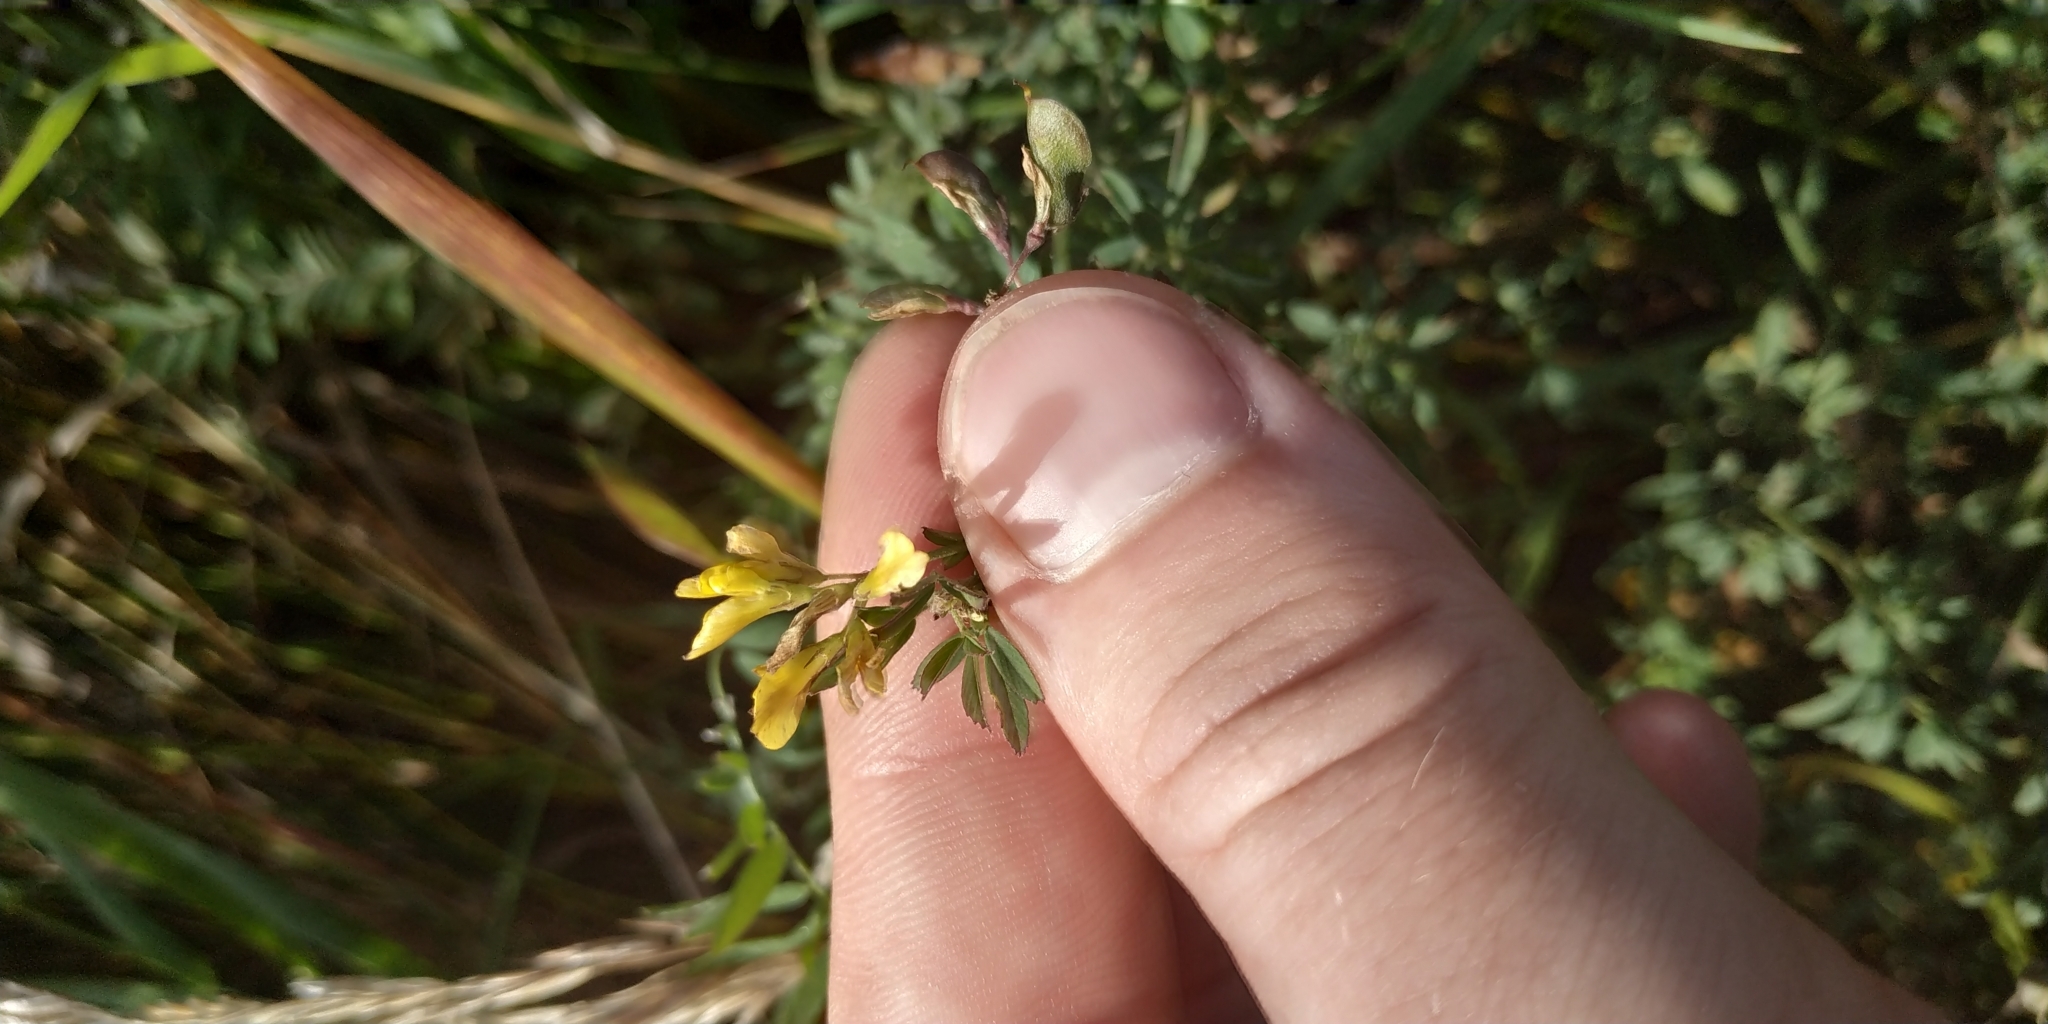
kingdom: Plantae
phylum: Tracheophyta
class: Magnoliopsida
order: Fabales
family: Fabaceae
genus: Medicago
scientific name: Medicago falcata
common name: Sickle medick
